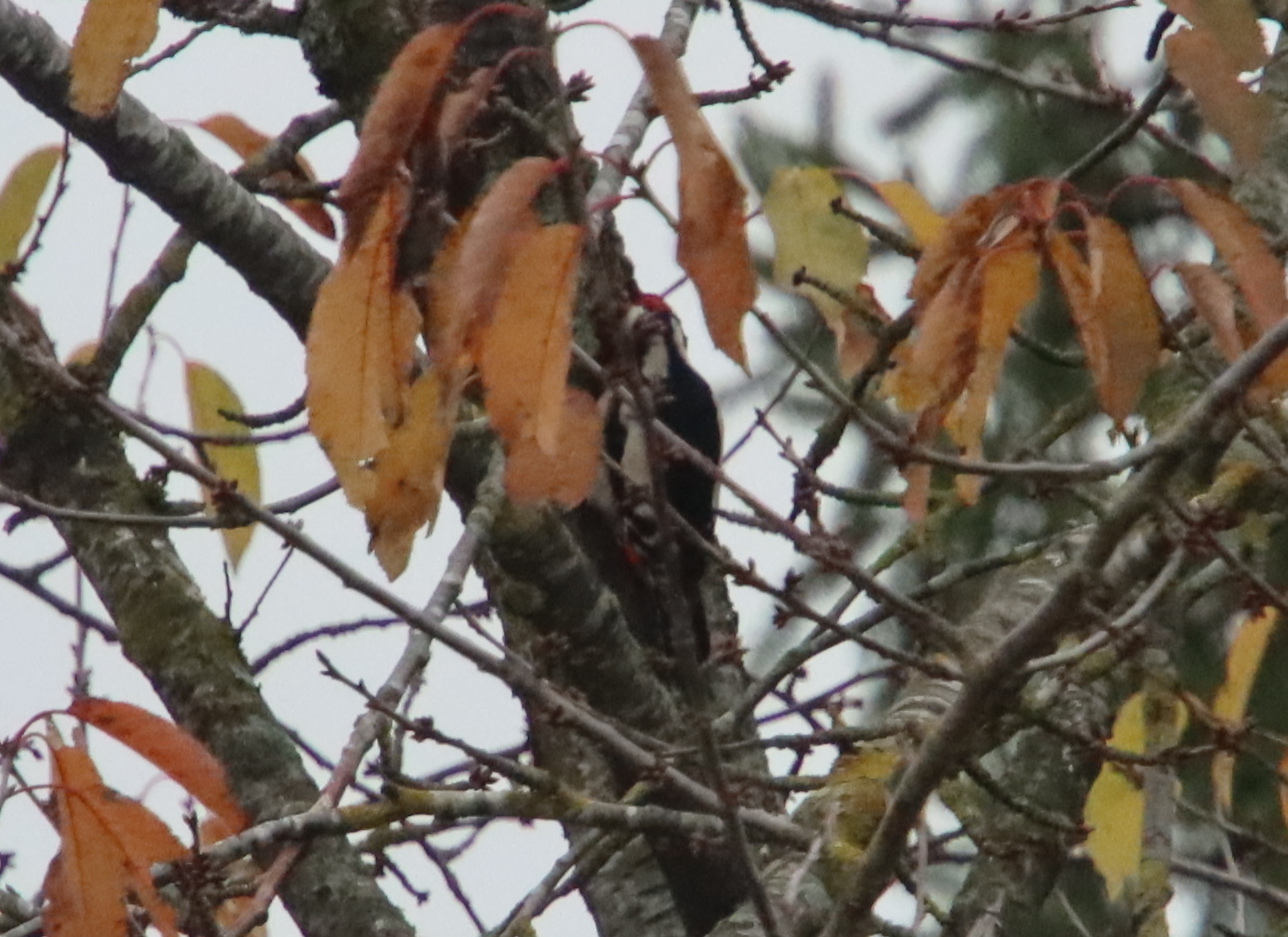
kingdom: Animalia
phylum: Chordata
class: Aves
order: Piciformes
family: Picidae
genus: Dendrocopos
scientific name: Dendrocopos major
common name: Great spotted woodpecker
